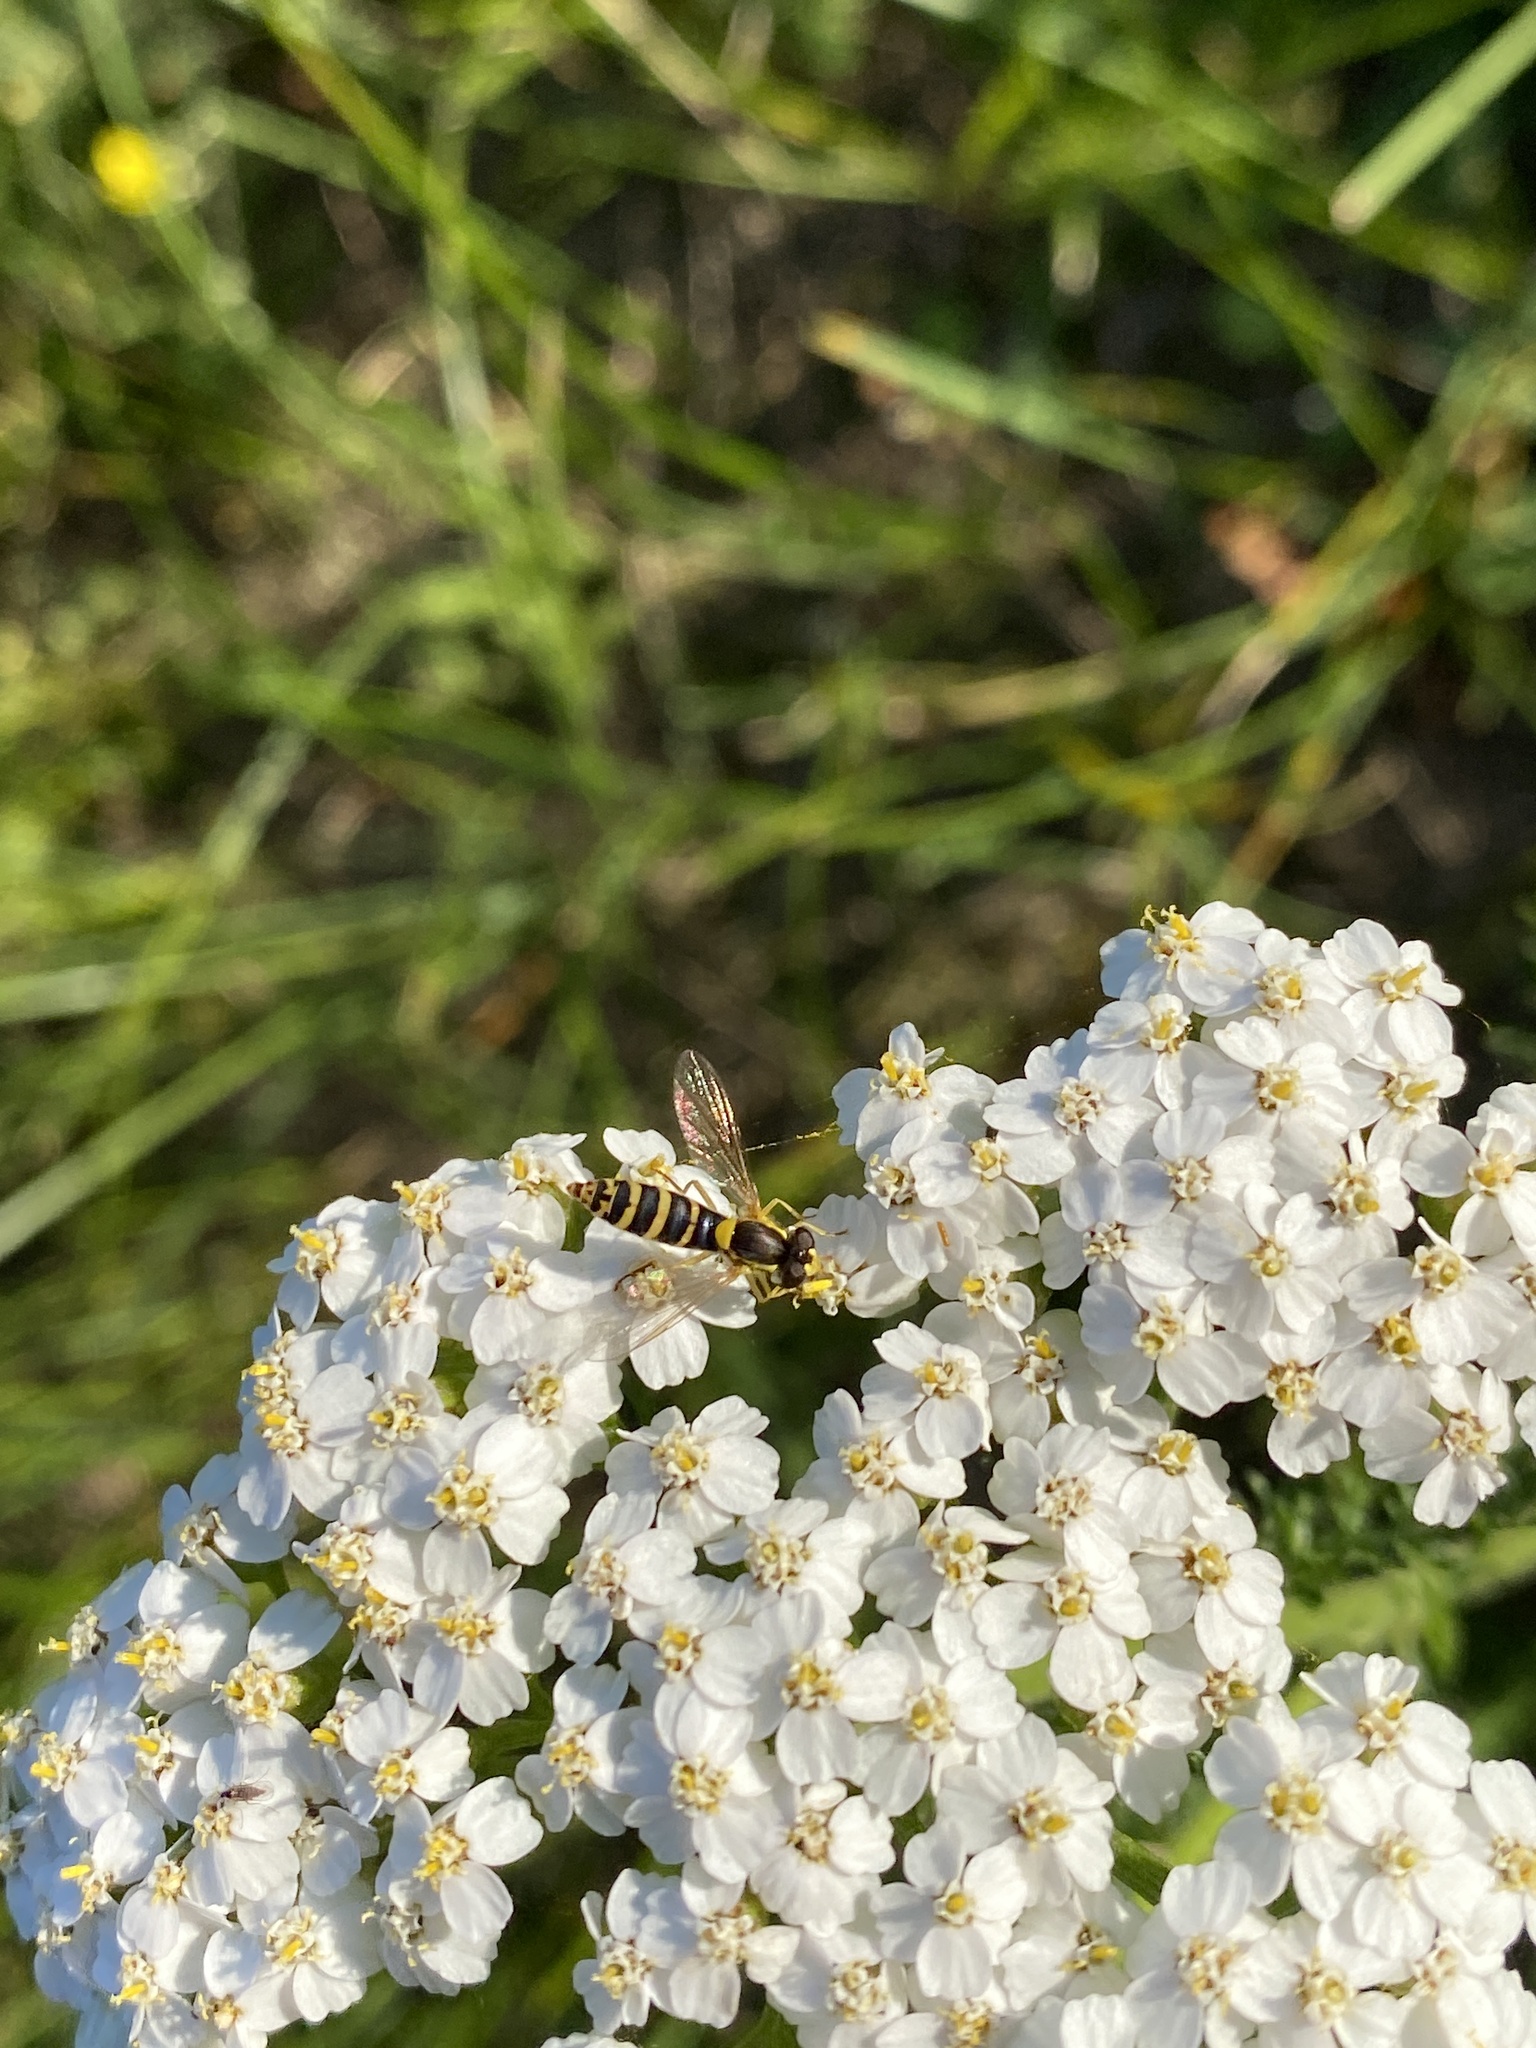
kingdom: Animalia
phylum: Arthropoda
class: Insecta
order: Diptera
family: Syrphidae
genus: Sphaerophoria
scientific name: Sphaerophoria scripta
